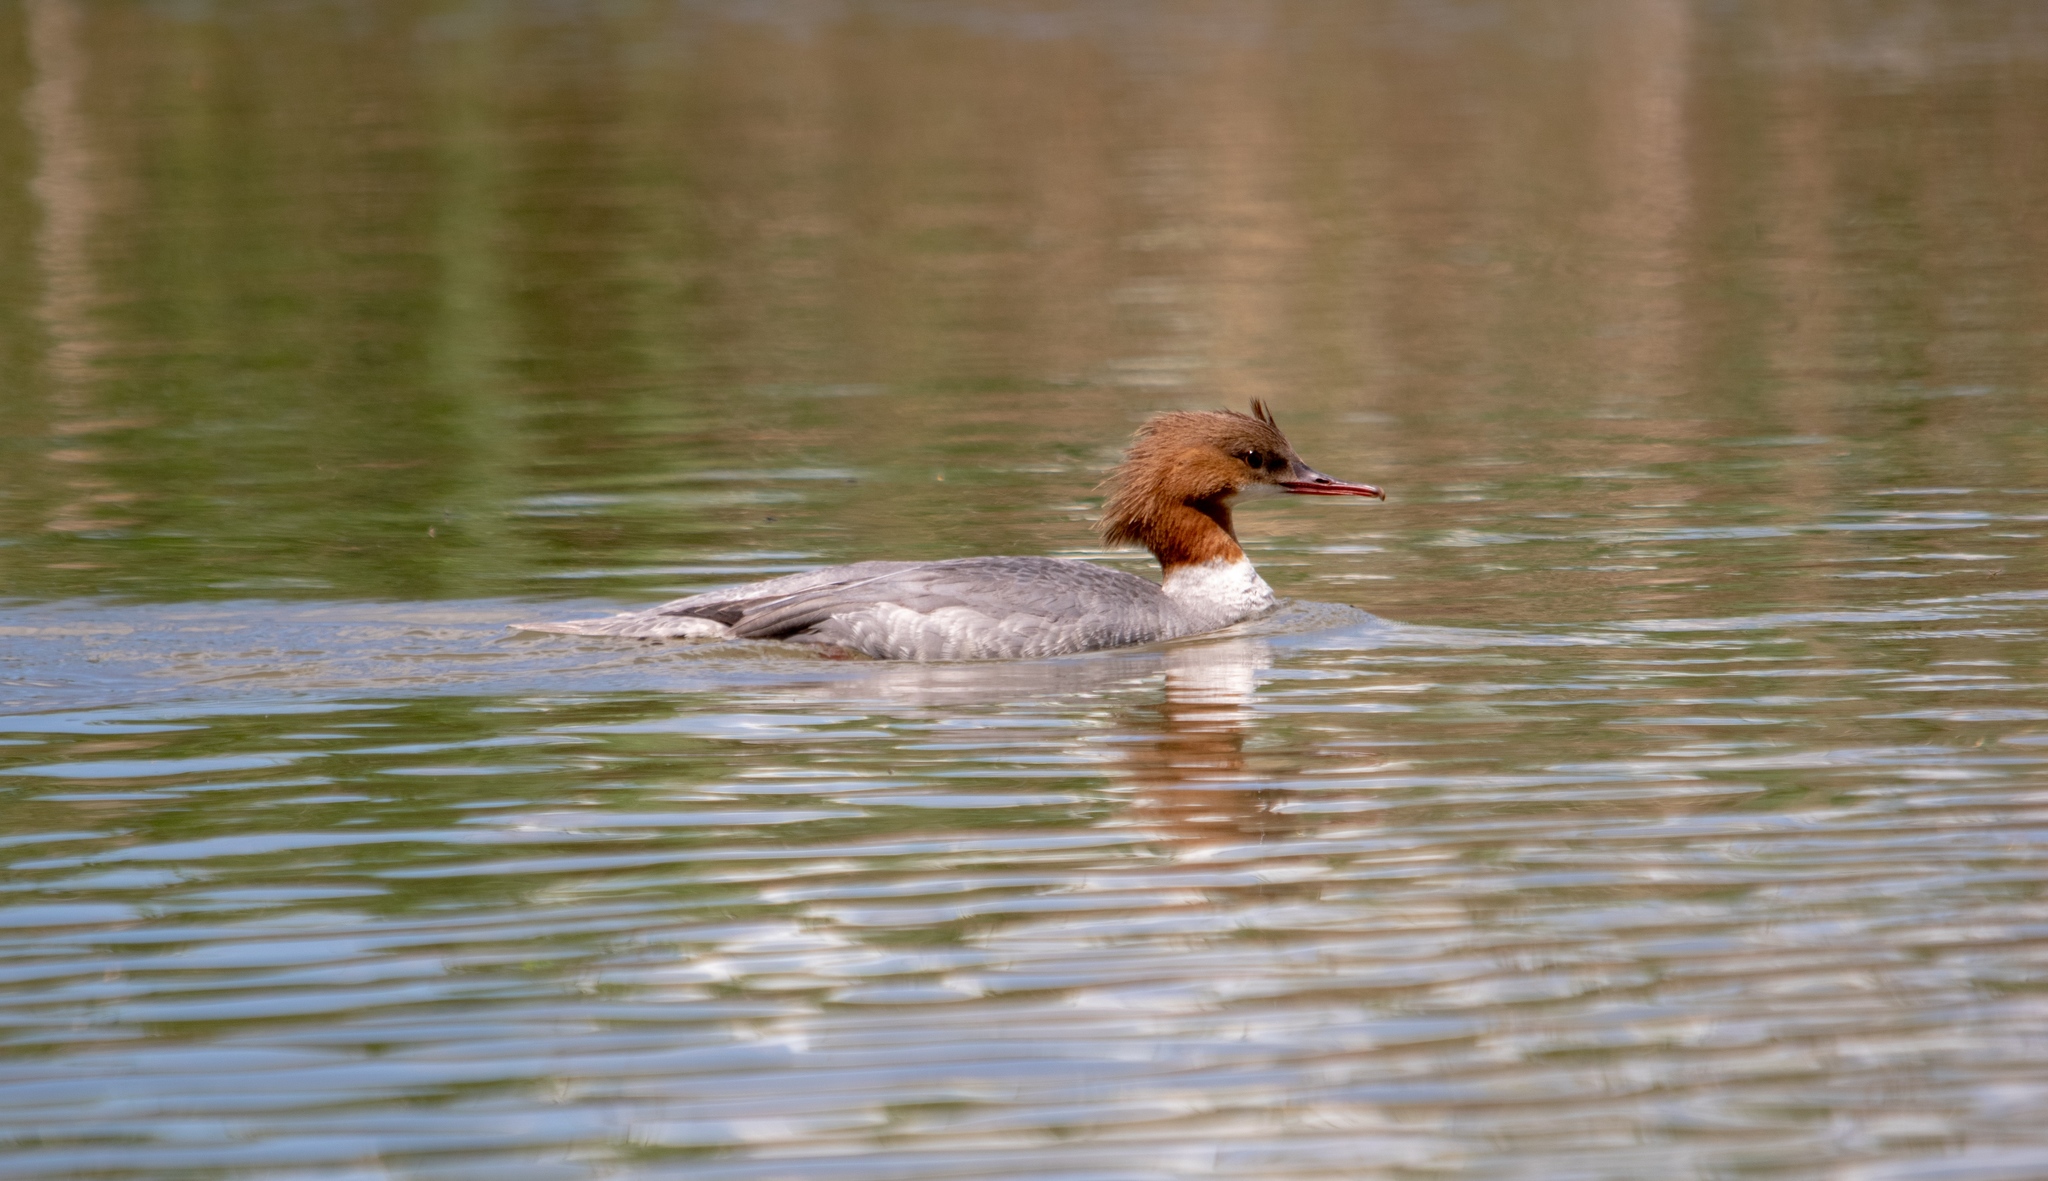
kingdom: Animalia
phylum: Chordata
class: Aves
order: Anseriformes
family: Anatidae
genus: Mergus
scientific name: Mergus merganser
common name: Common merganser
